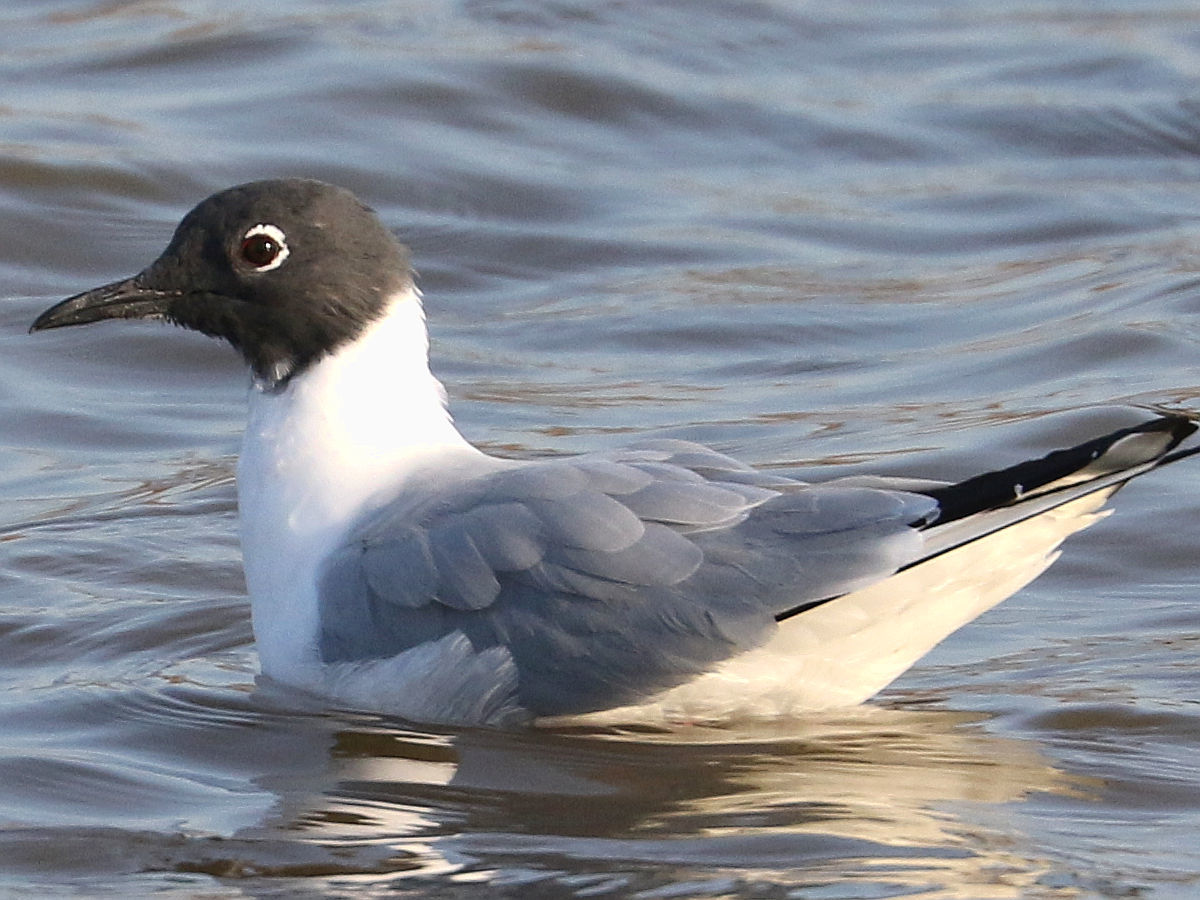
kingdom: Animalia
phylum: Chordata
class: Aves
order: Charadriiformes
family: Laridae
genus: Chroicocephalus
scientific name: Chroicocephalus philadelphia
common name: Bonaparte's gull
